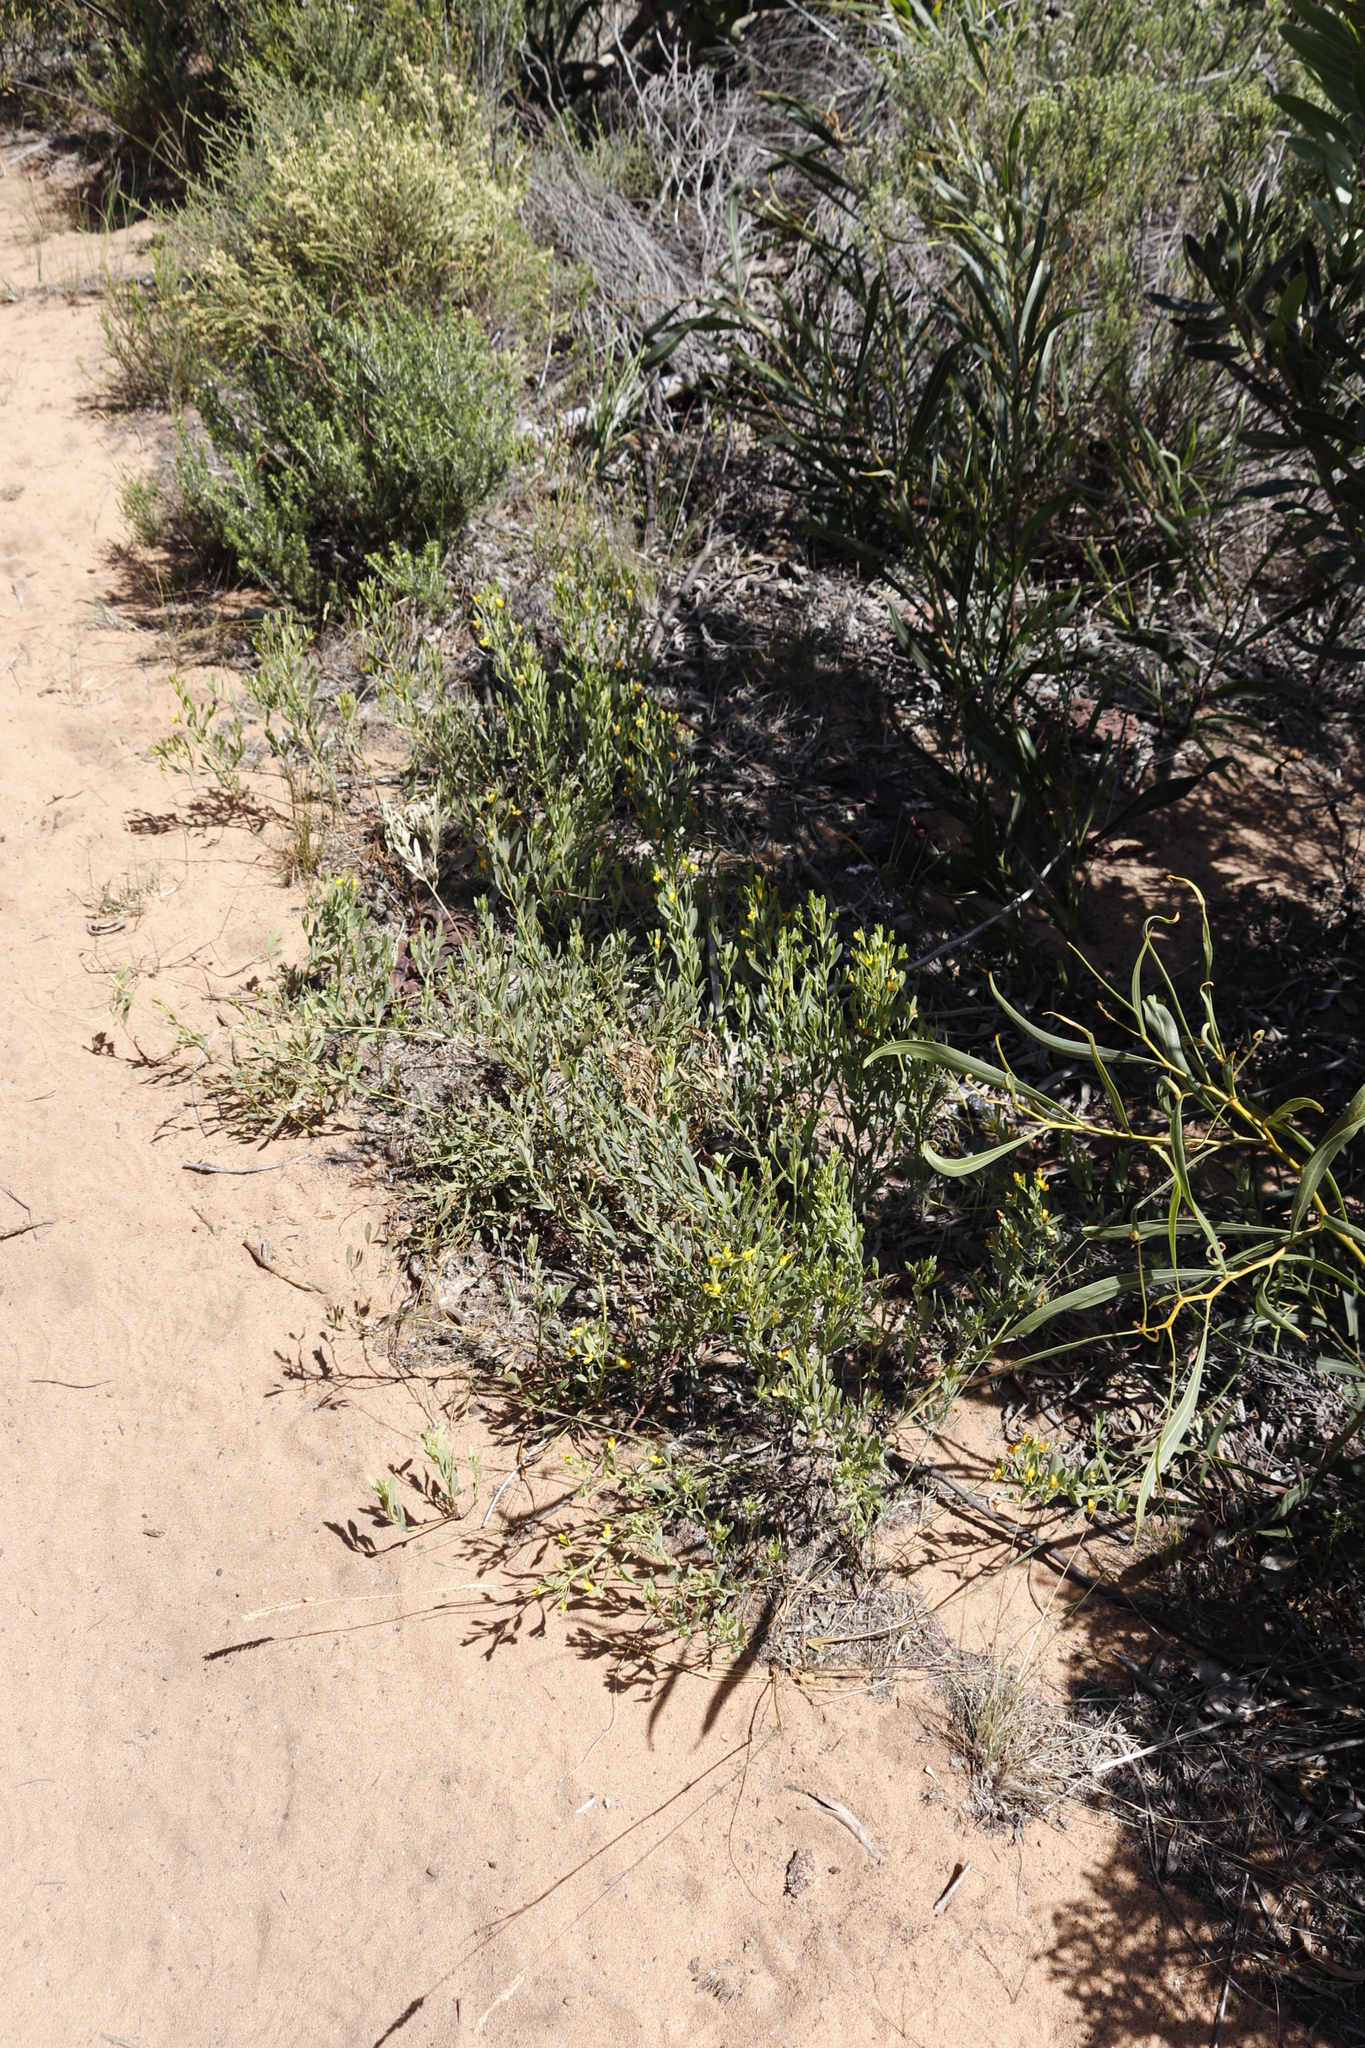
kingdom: Plantae
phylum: Tracheophyta
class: Magnoliopsida
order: Fabales
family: Fabaceae
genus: Rafnia
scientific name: Rafnia angulata
